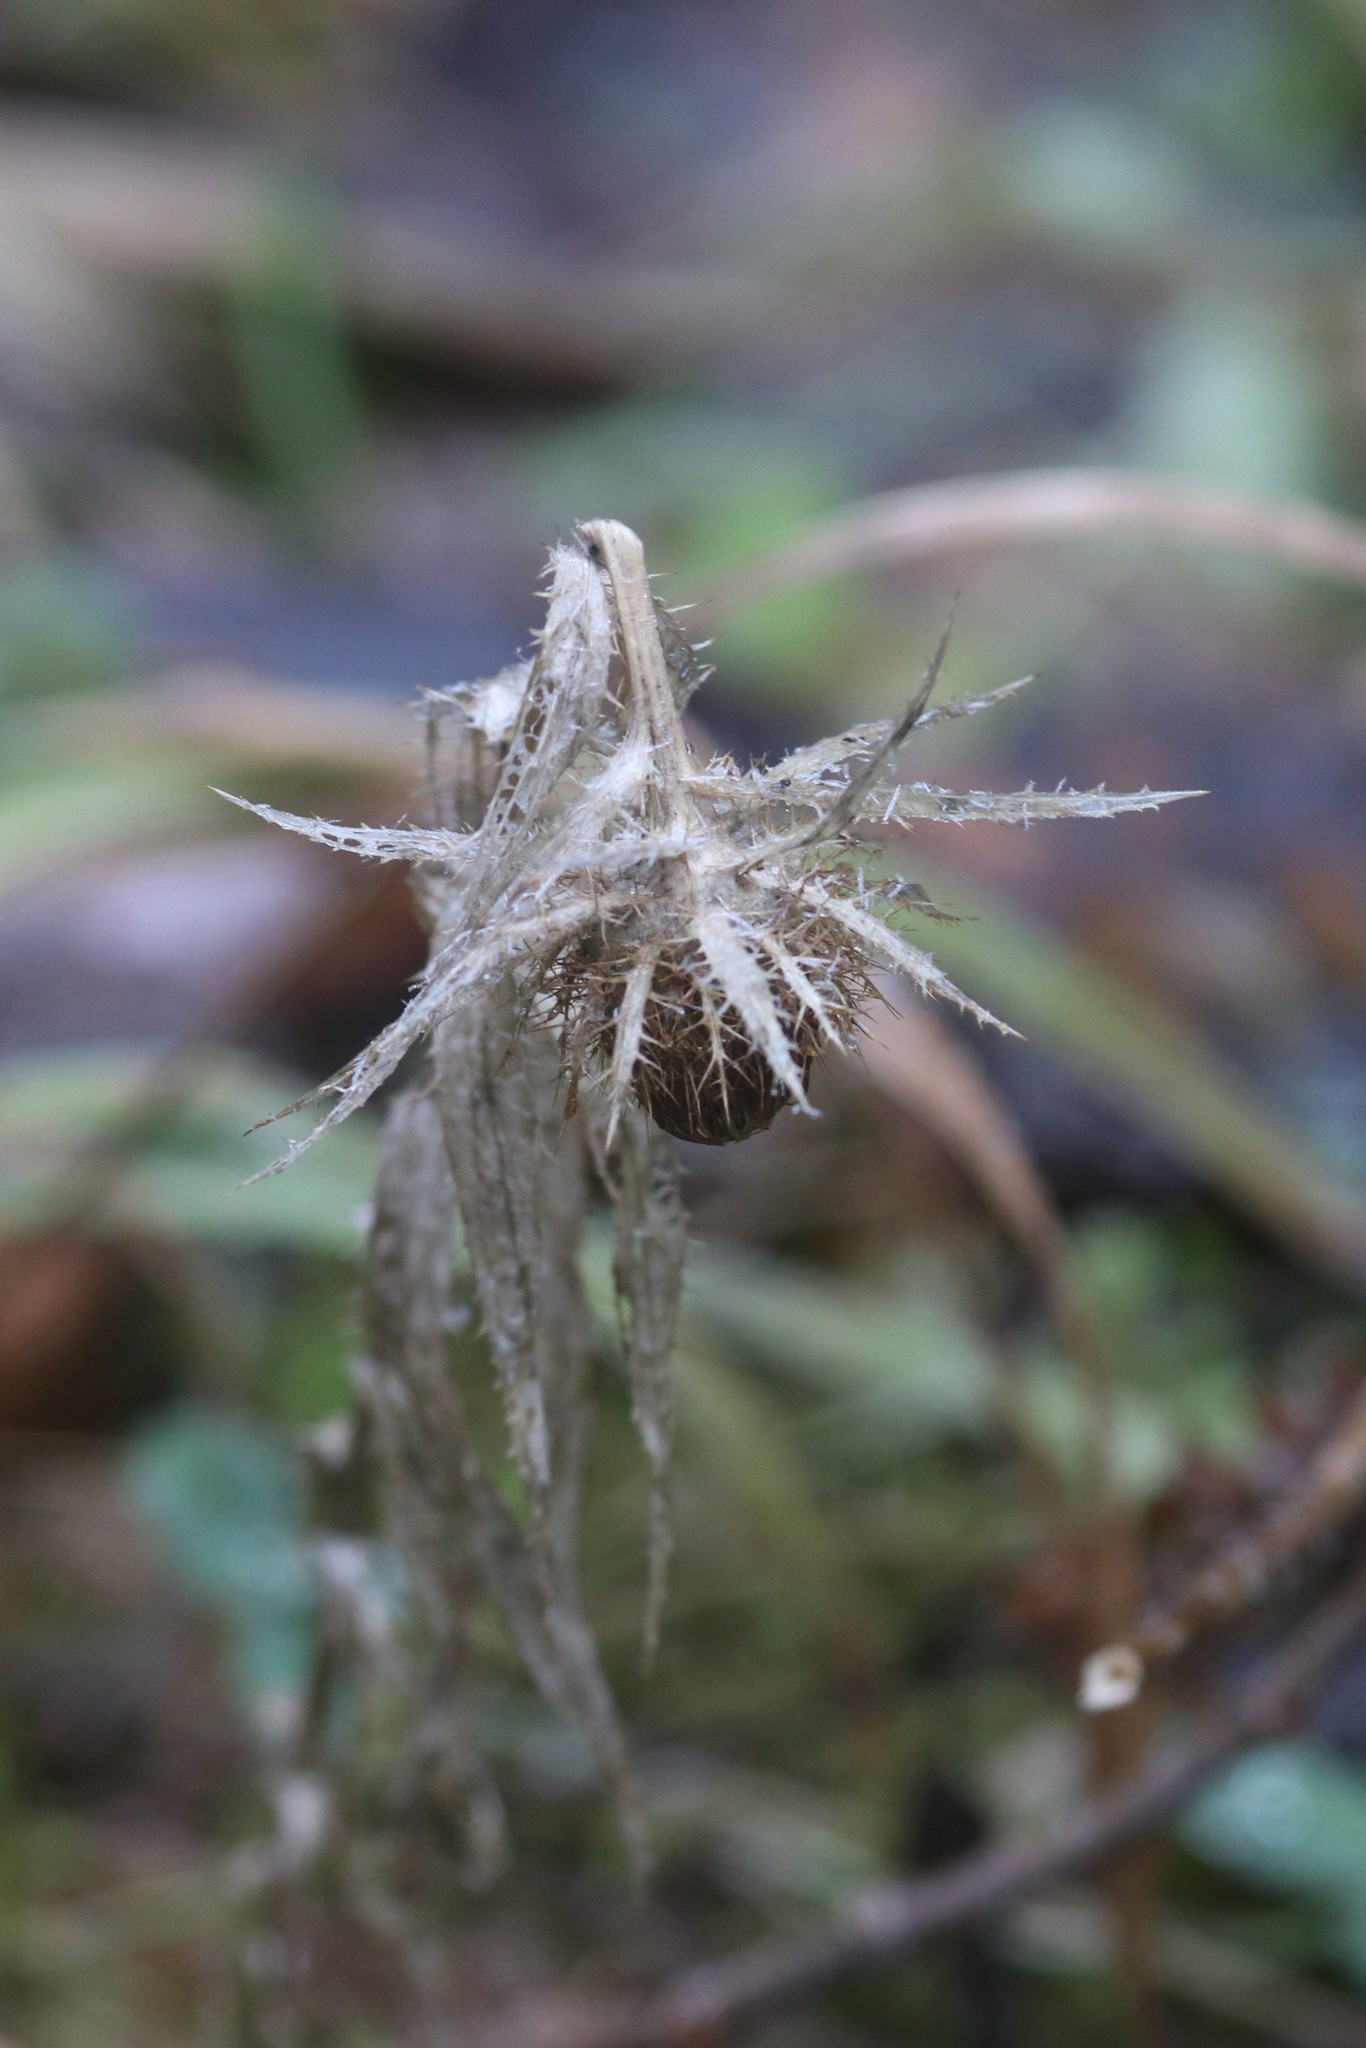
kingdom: Plantae
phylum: Tracheophyta
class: Magnoliopsida
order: Asterales
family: Asteraceae
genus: Carlina
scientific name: Carlina biebersteinii
